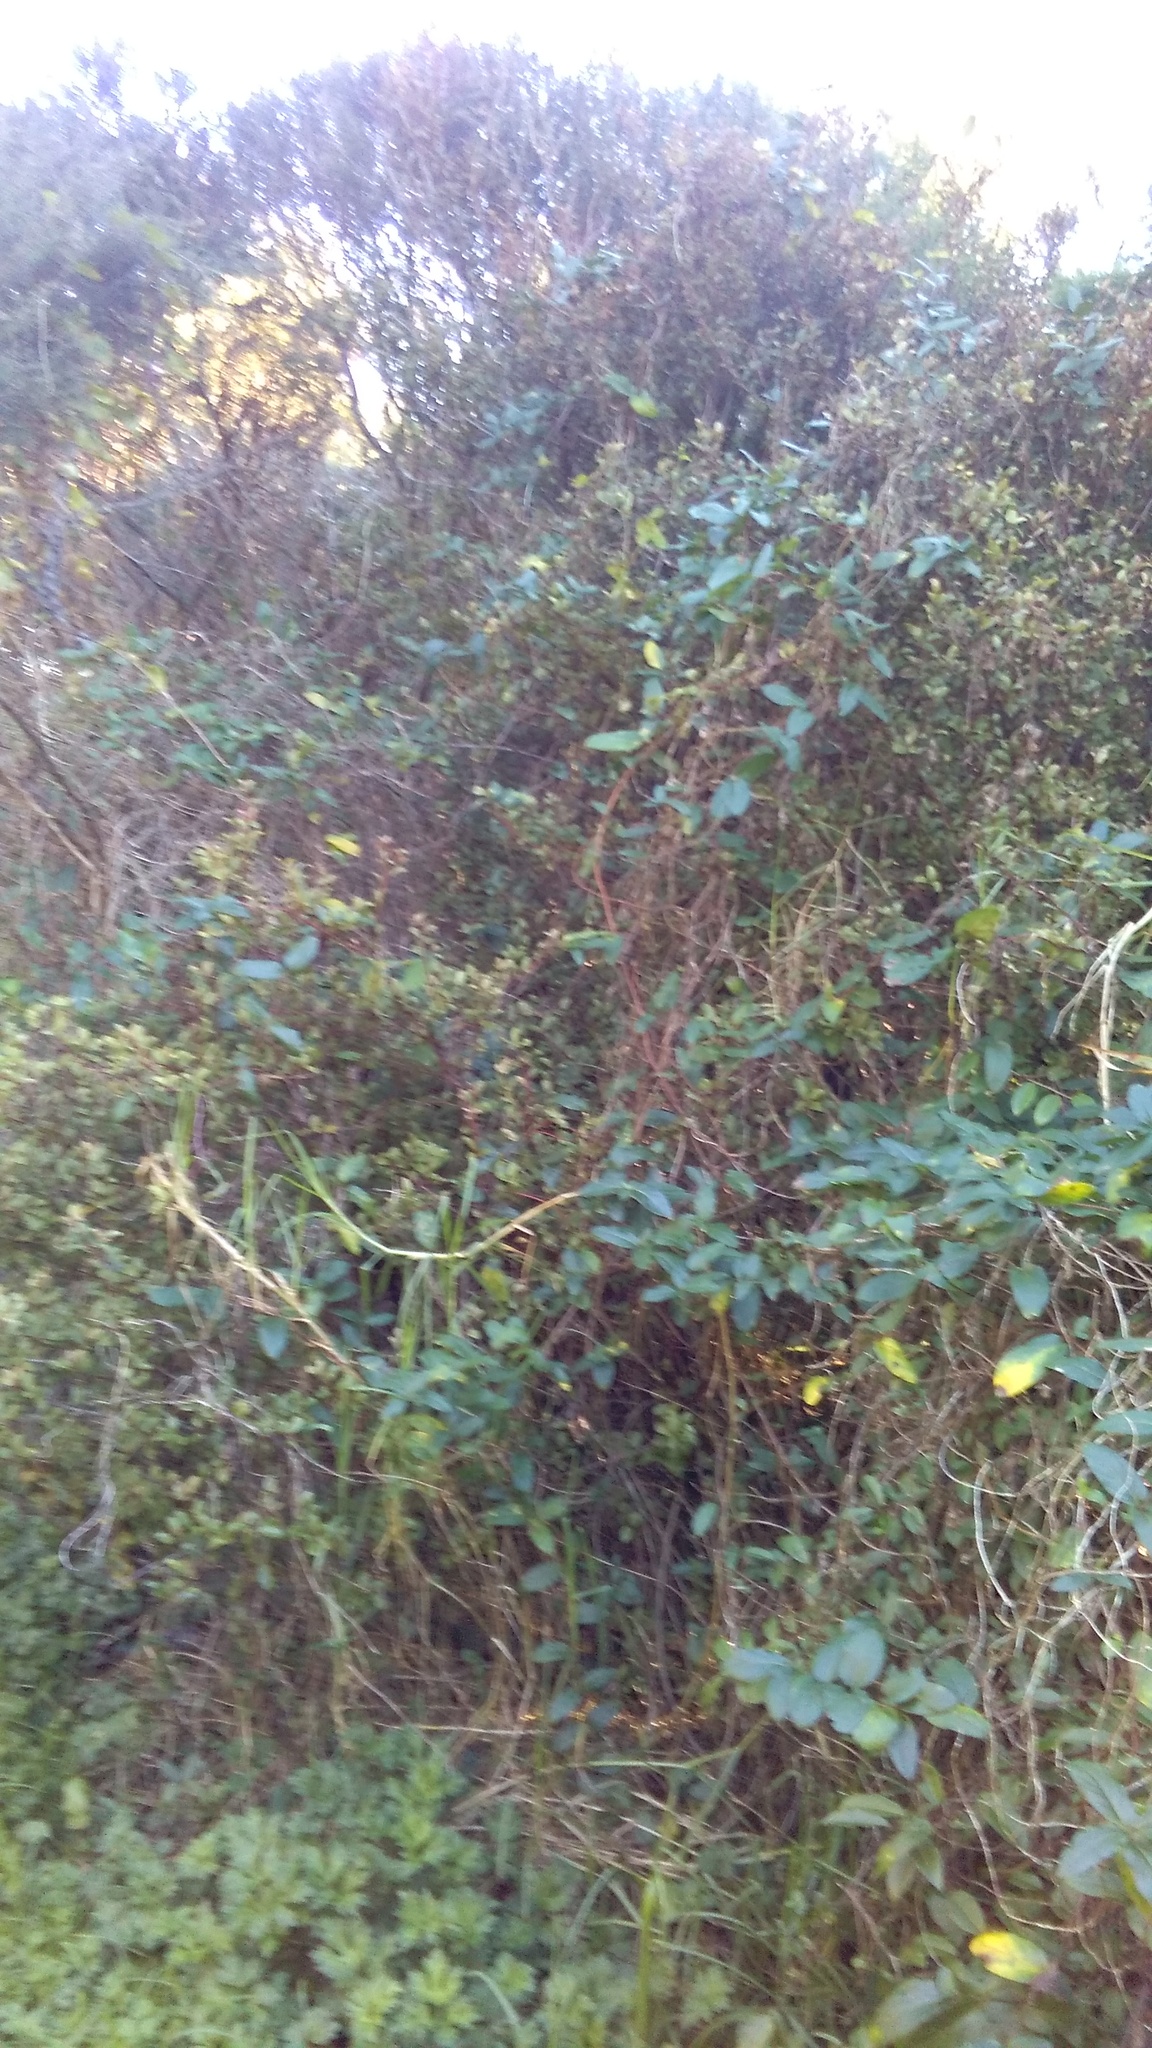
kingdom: Plantae
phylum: Tracheophyta
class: Magnoliopsida
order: Dipsacales
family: Caprifoliaceae
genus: Lonicera
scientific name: Lonicera japonica
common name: Japanese honeysuckle
